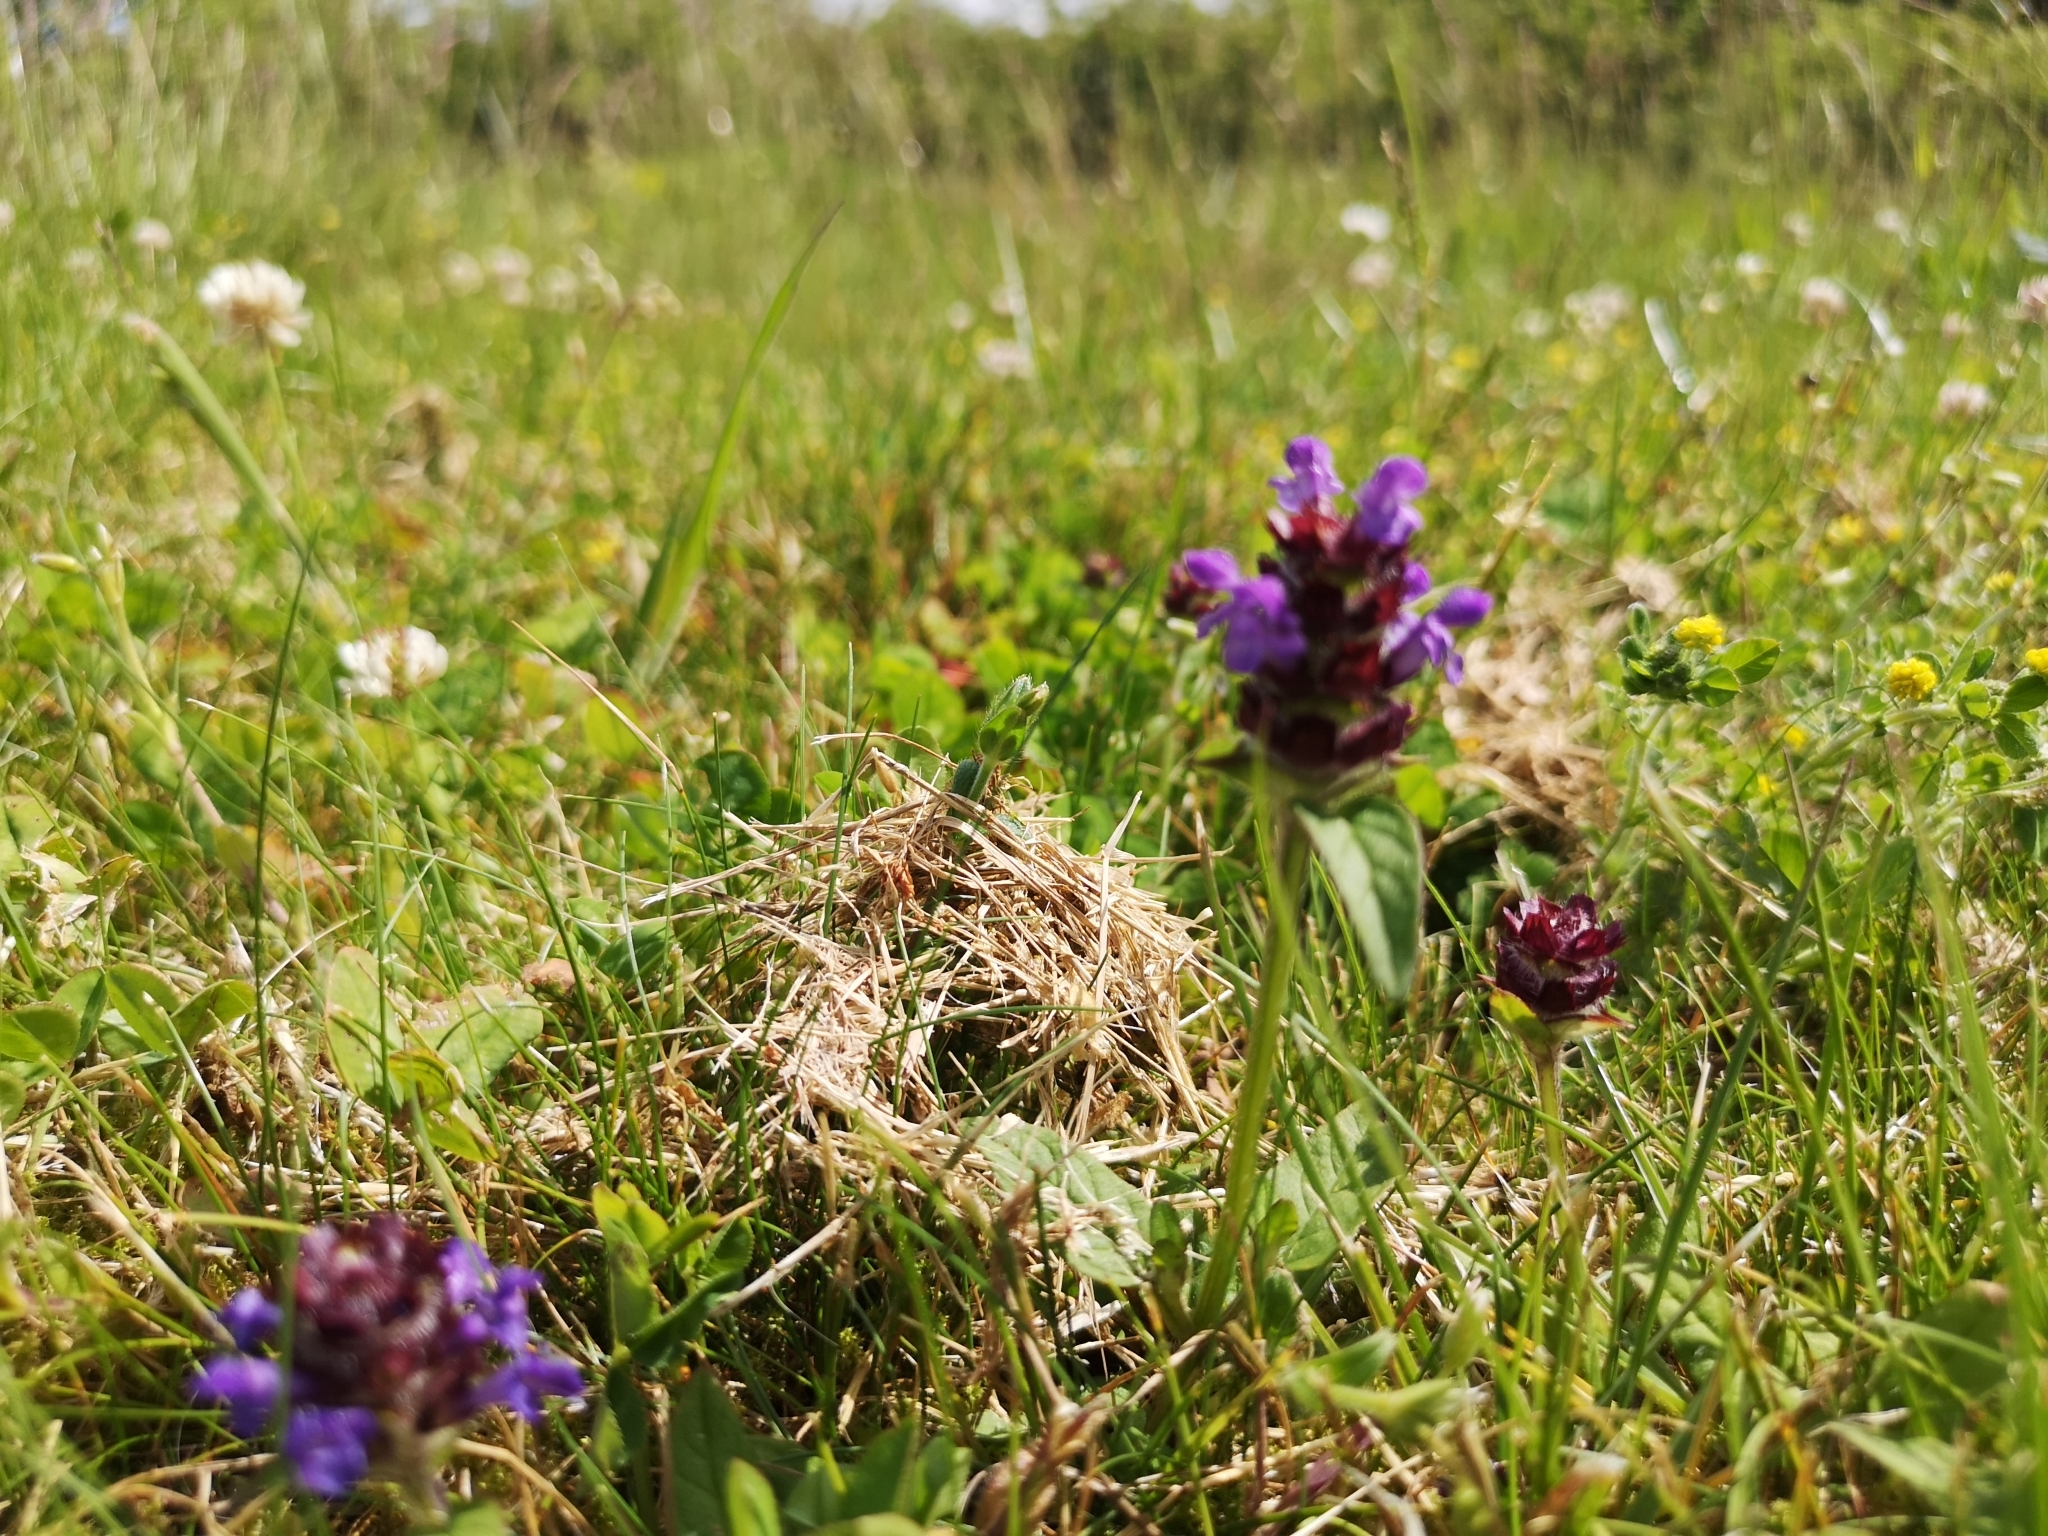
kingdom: Plantae
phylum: Tracheophyta
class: Magnoliopsida
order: Lamiales
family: Lamiaceae
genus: Prunella
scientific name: Prunella vulgaris
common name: Heal-all
